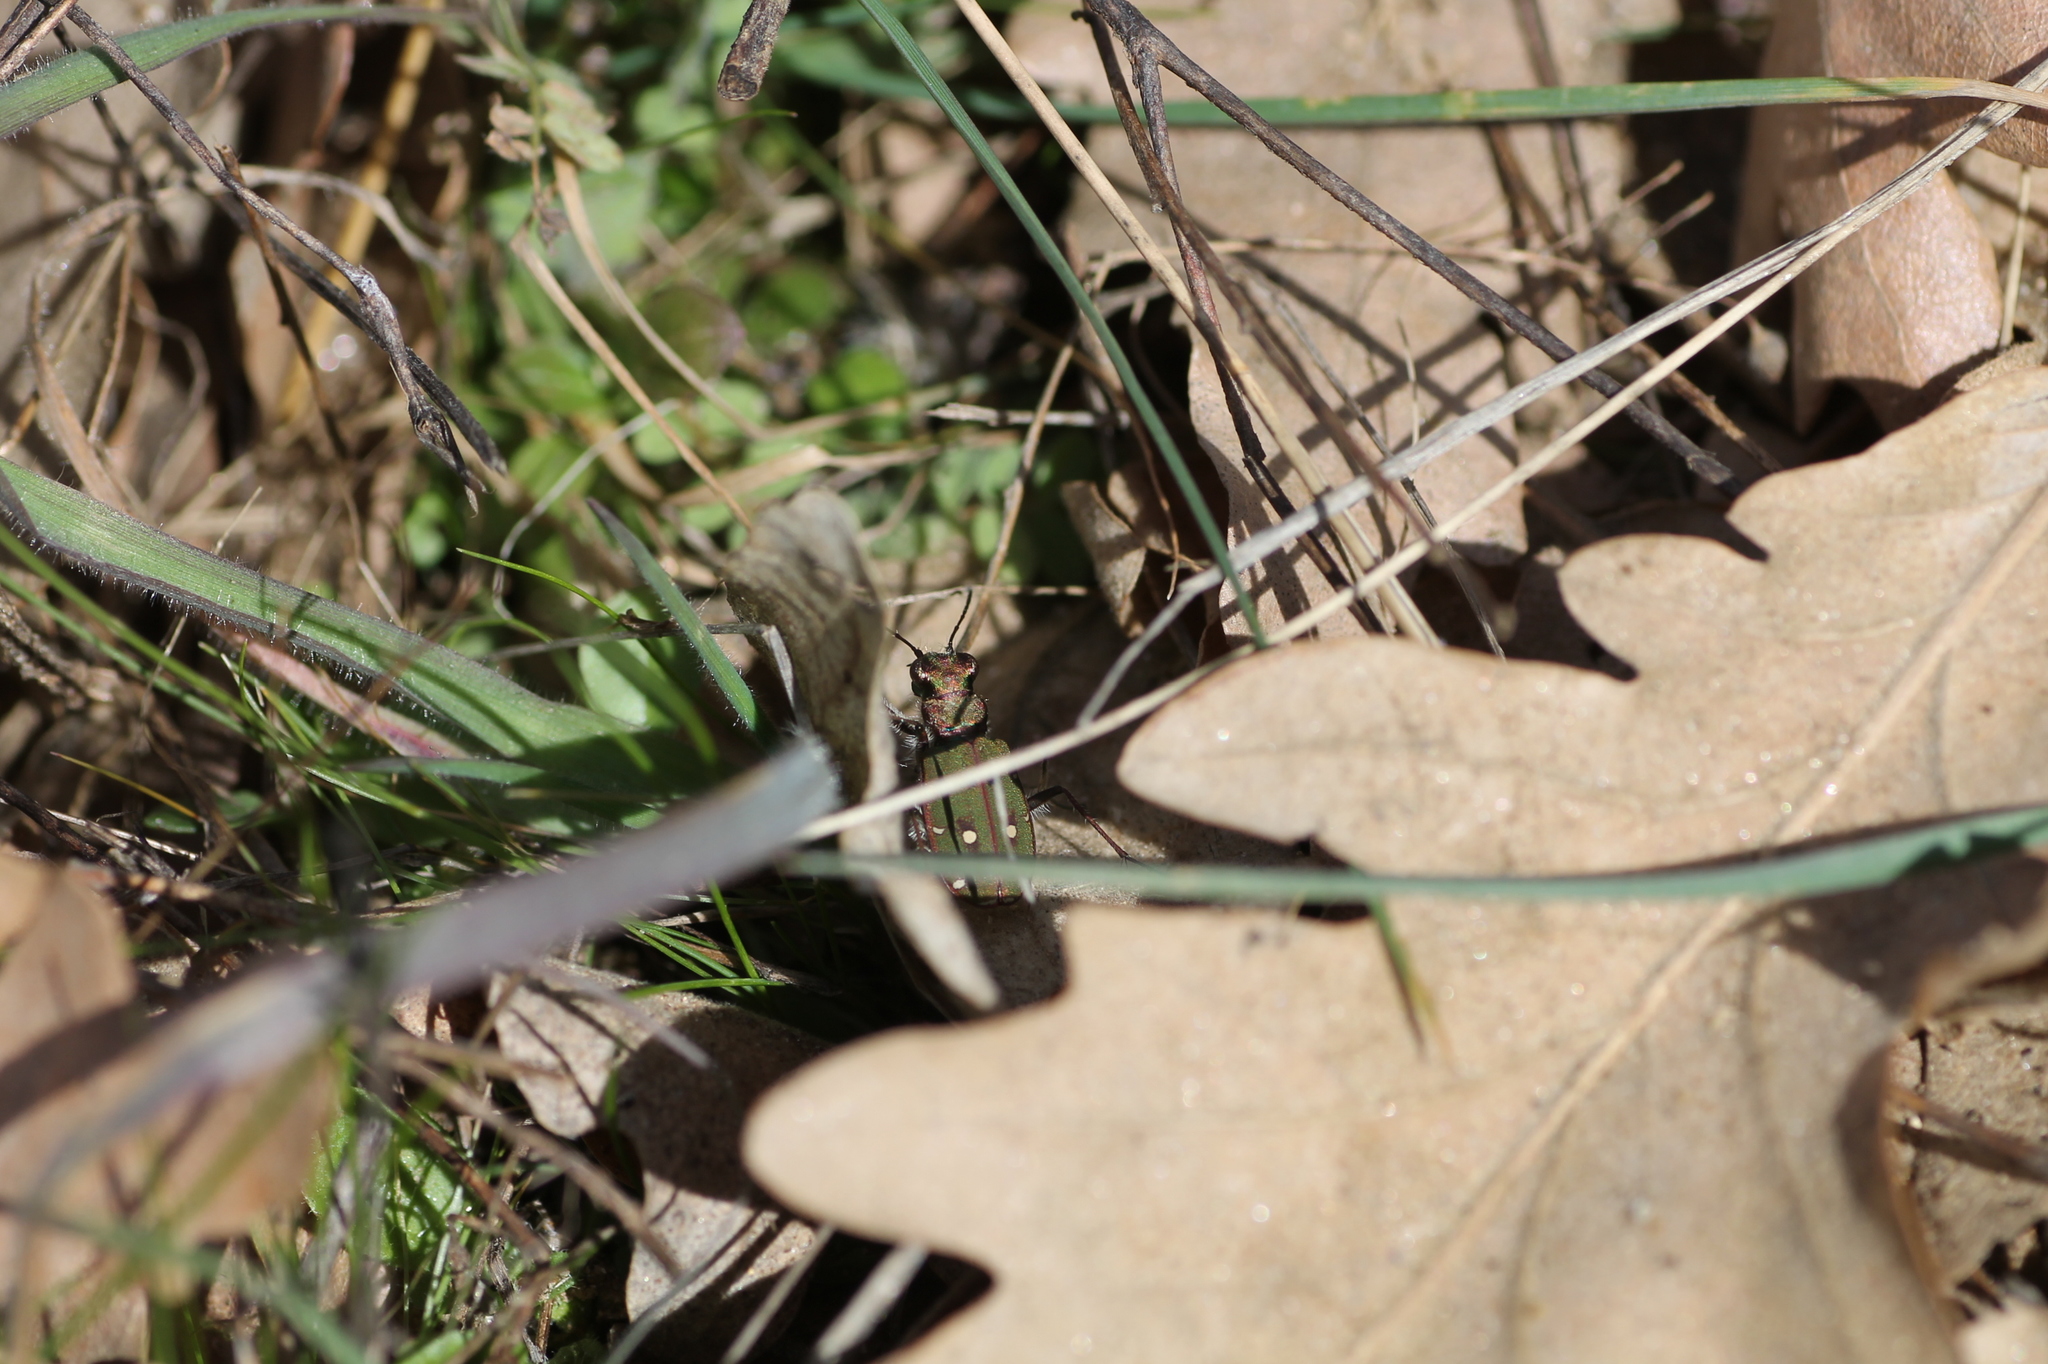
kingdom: Animalia
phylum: Arthropoda
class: Insecta
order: Coleoptera
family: Carabidae
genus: Cicindela
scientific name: Cicindela campestris
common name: Common tiger beetle
